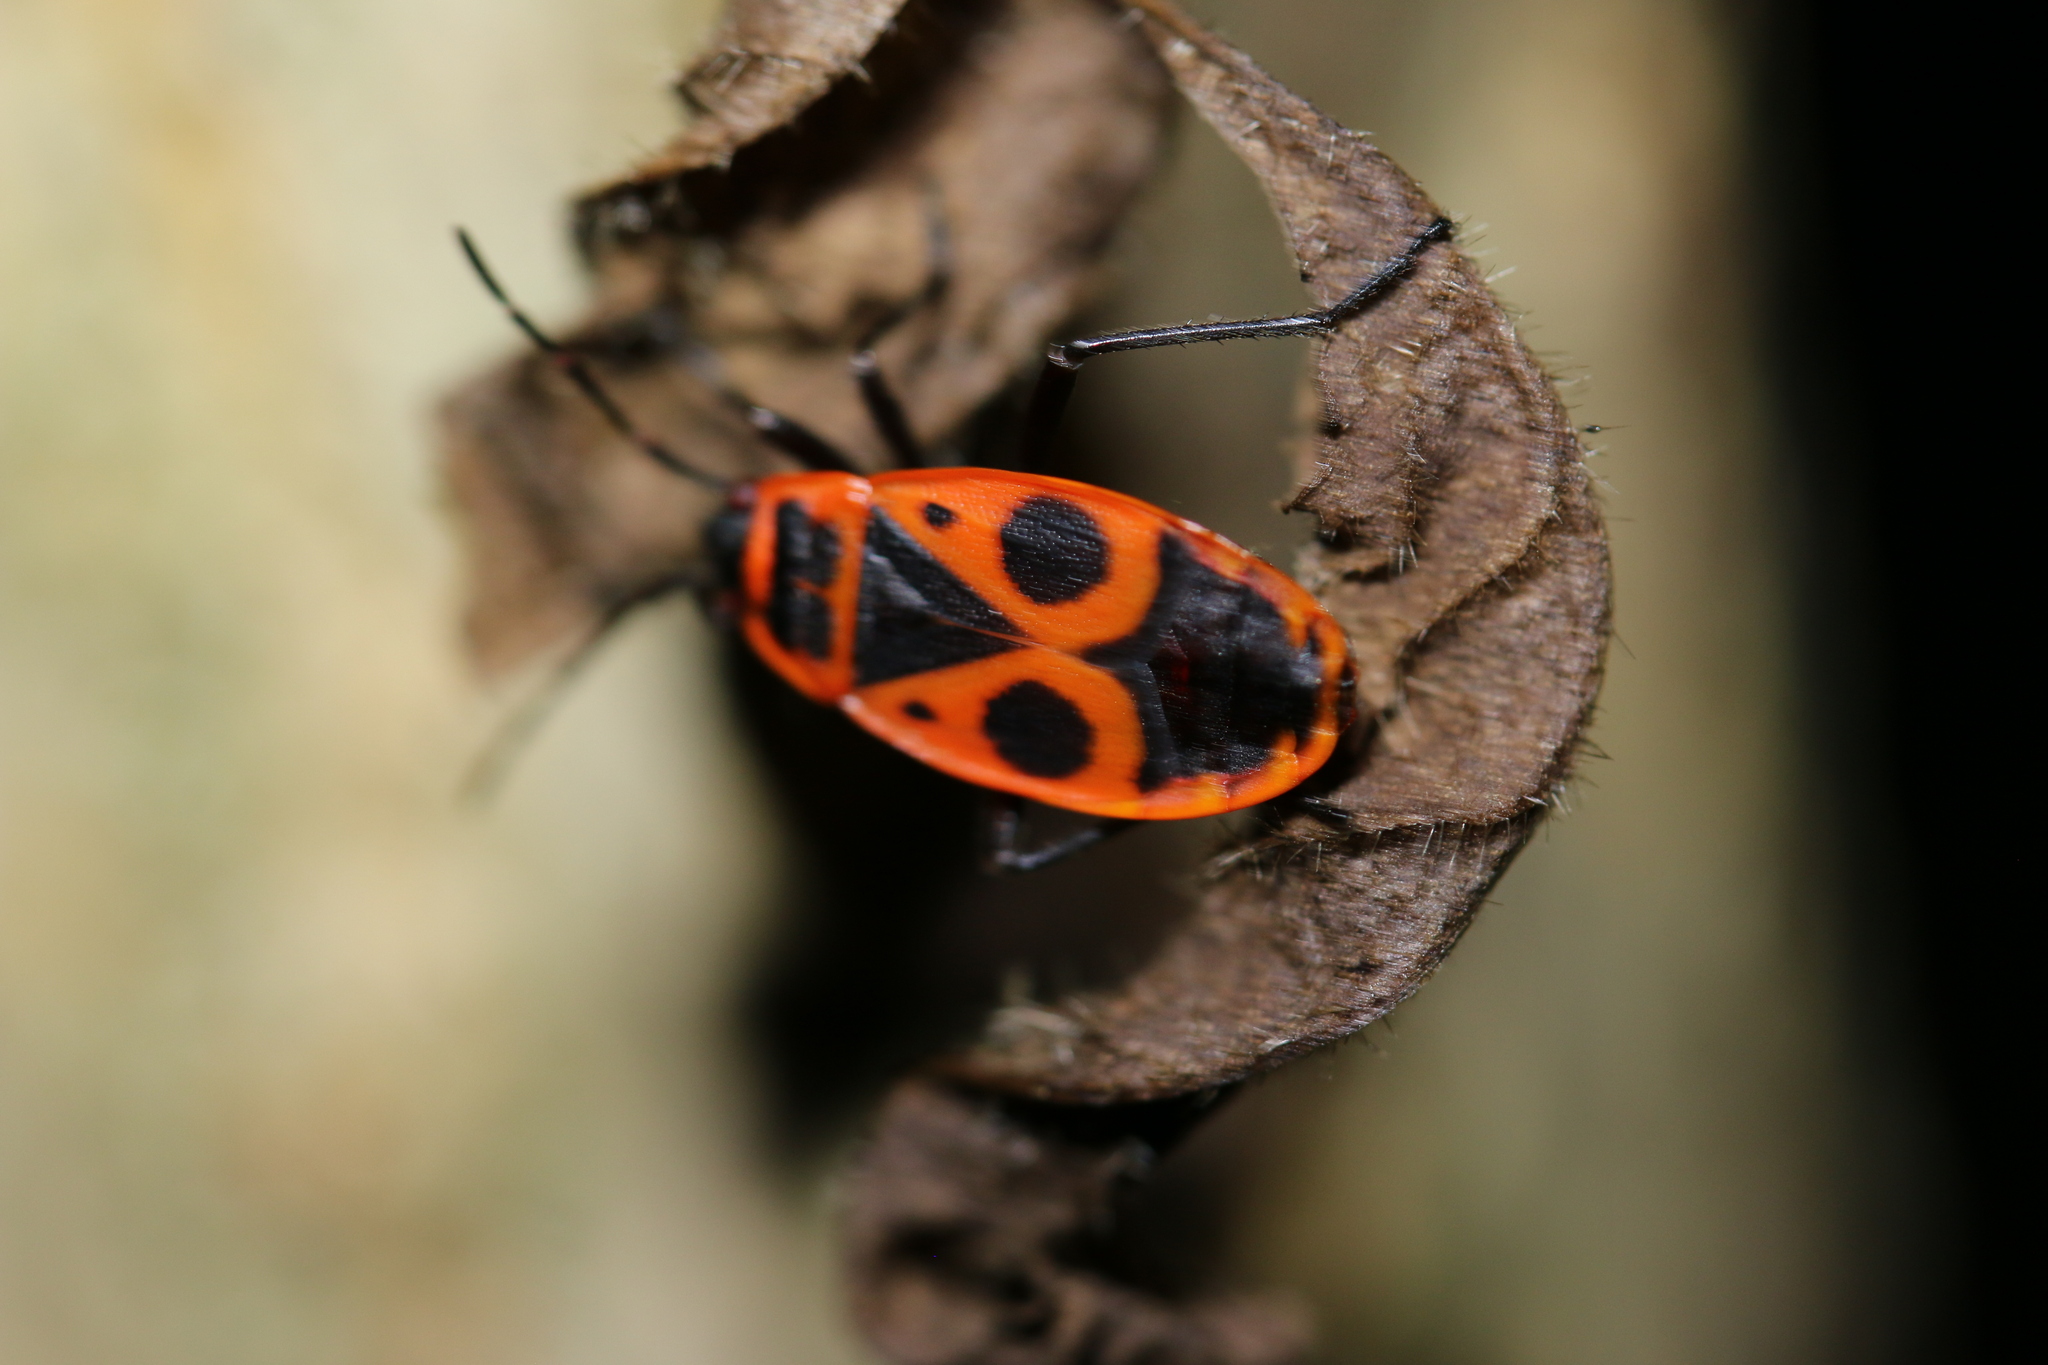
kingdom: Animalia
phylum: Arthropoda
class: Insecta
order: Hemiptera
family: Pyrrhocoridae
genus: Pyrrhocoris
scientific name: Pyrrhocoris apterus
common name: Firebug
